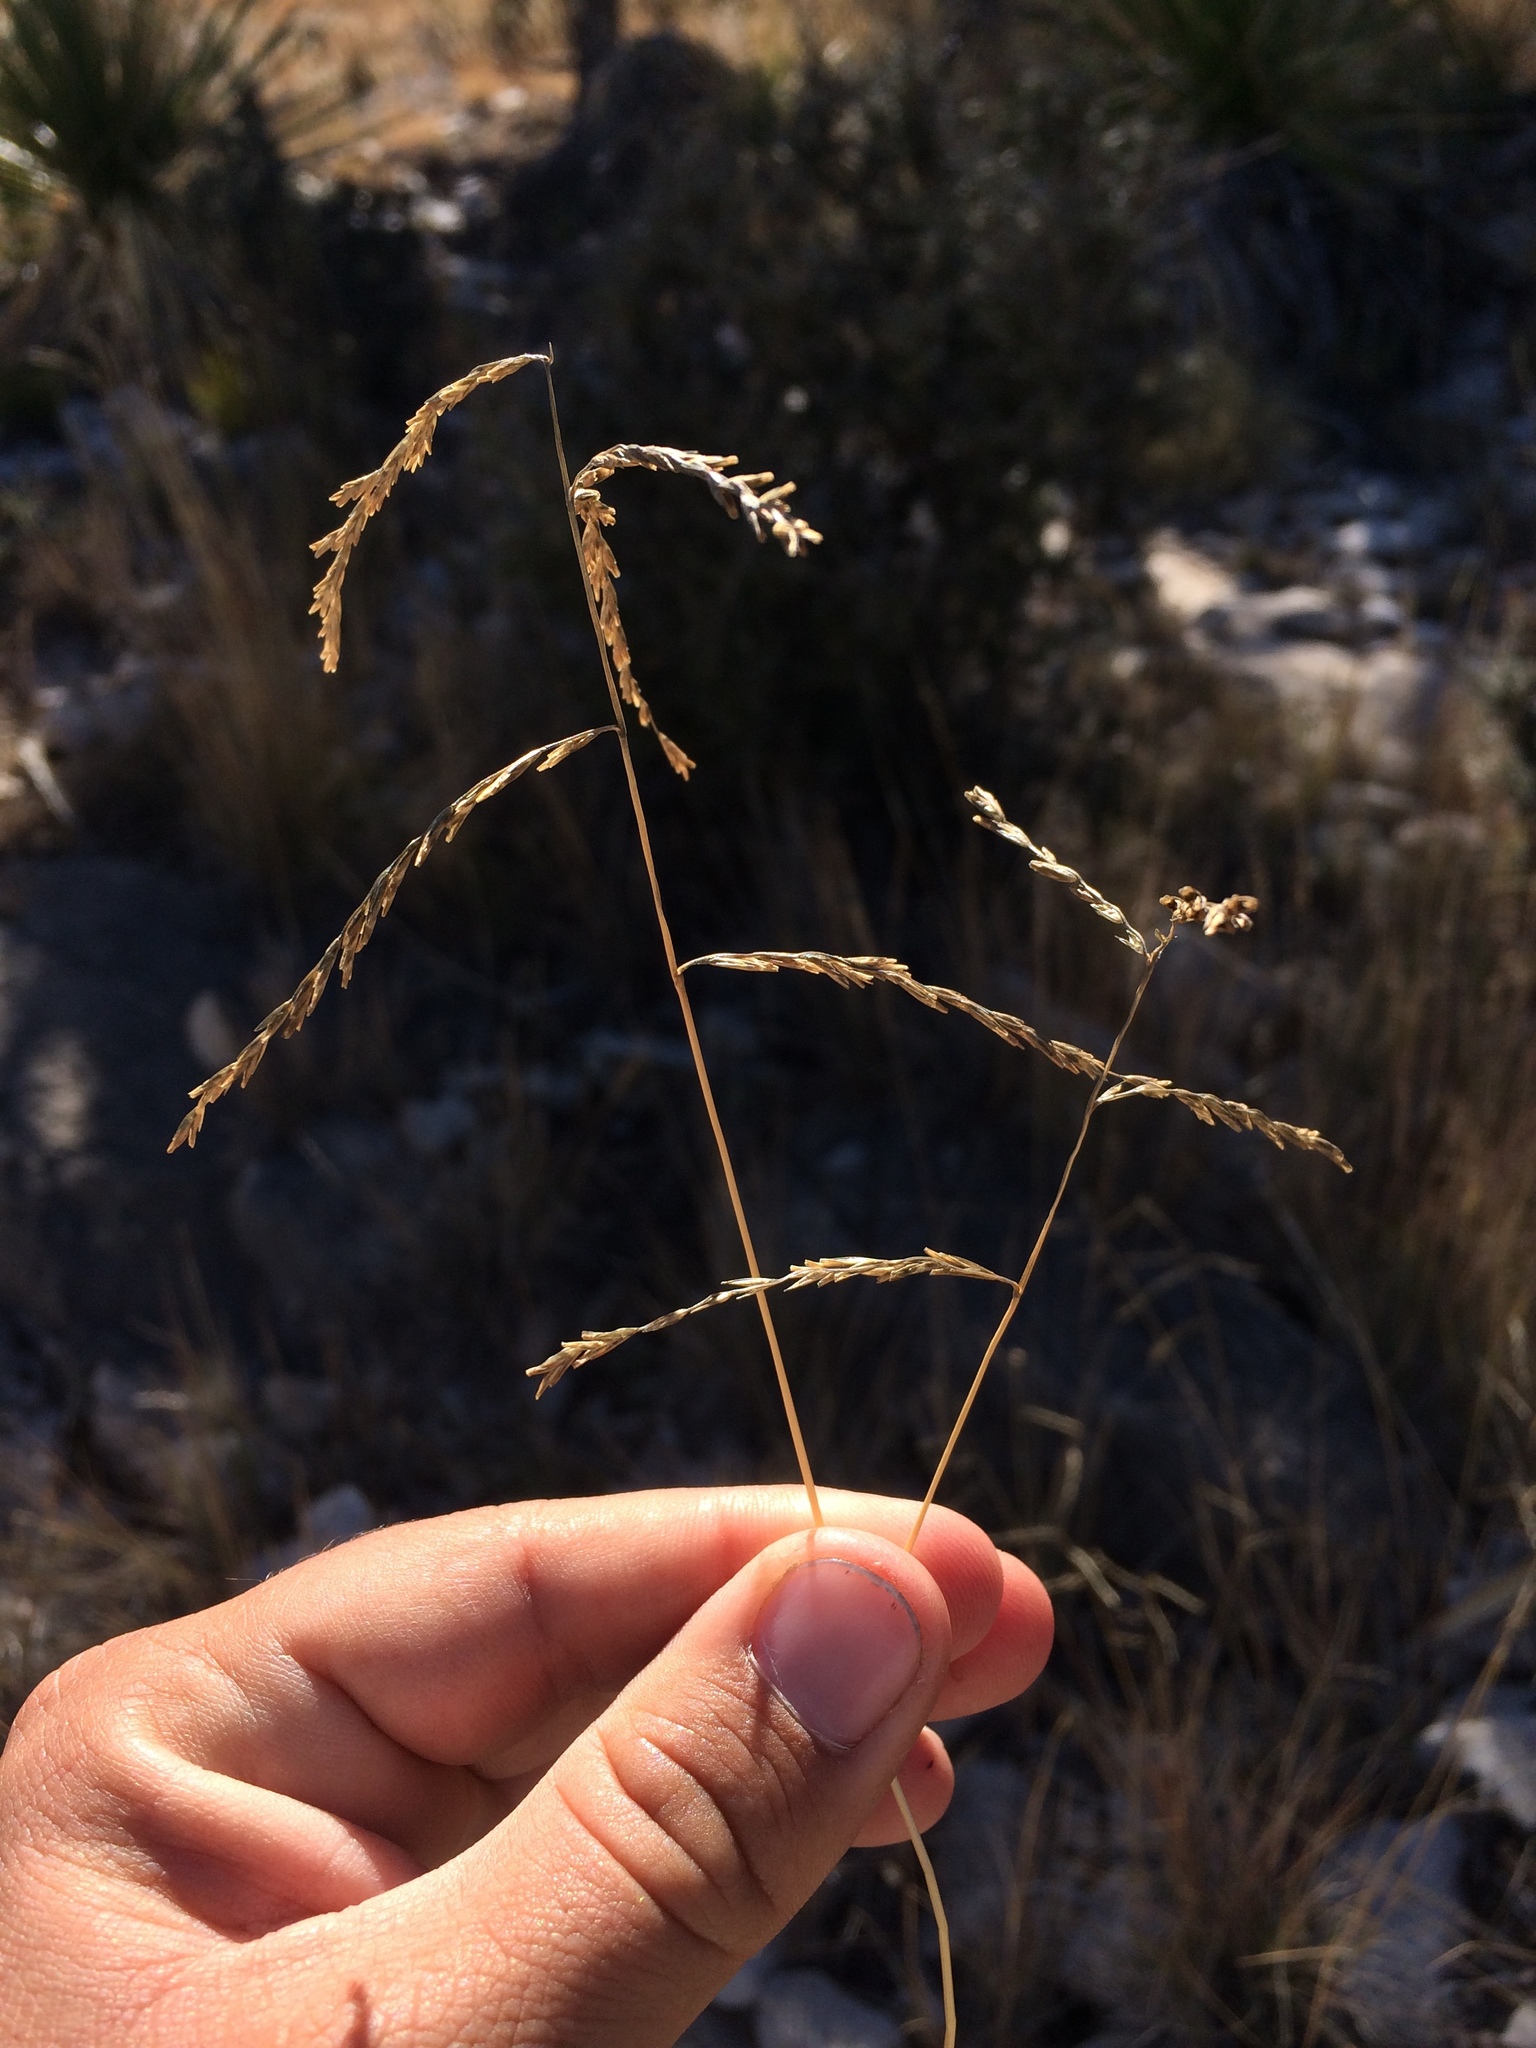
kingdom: Plantae
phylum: Tracheophyta
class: Liliopsida
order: Poales
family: Poaceae
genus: Disakisperma
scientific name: Disakisperma dubium
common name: Green sprangletop
